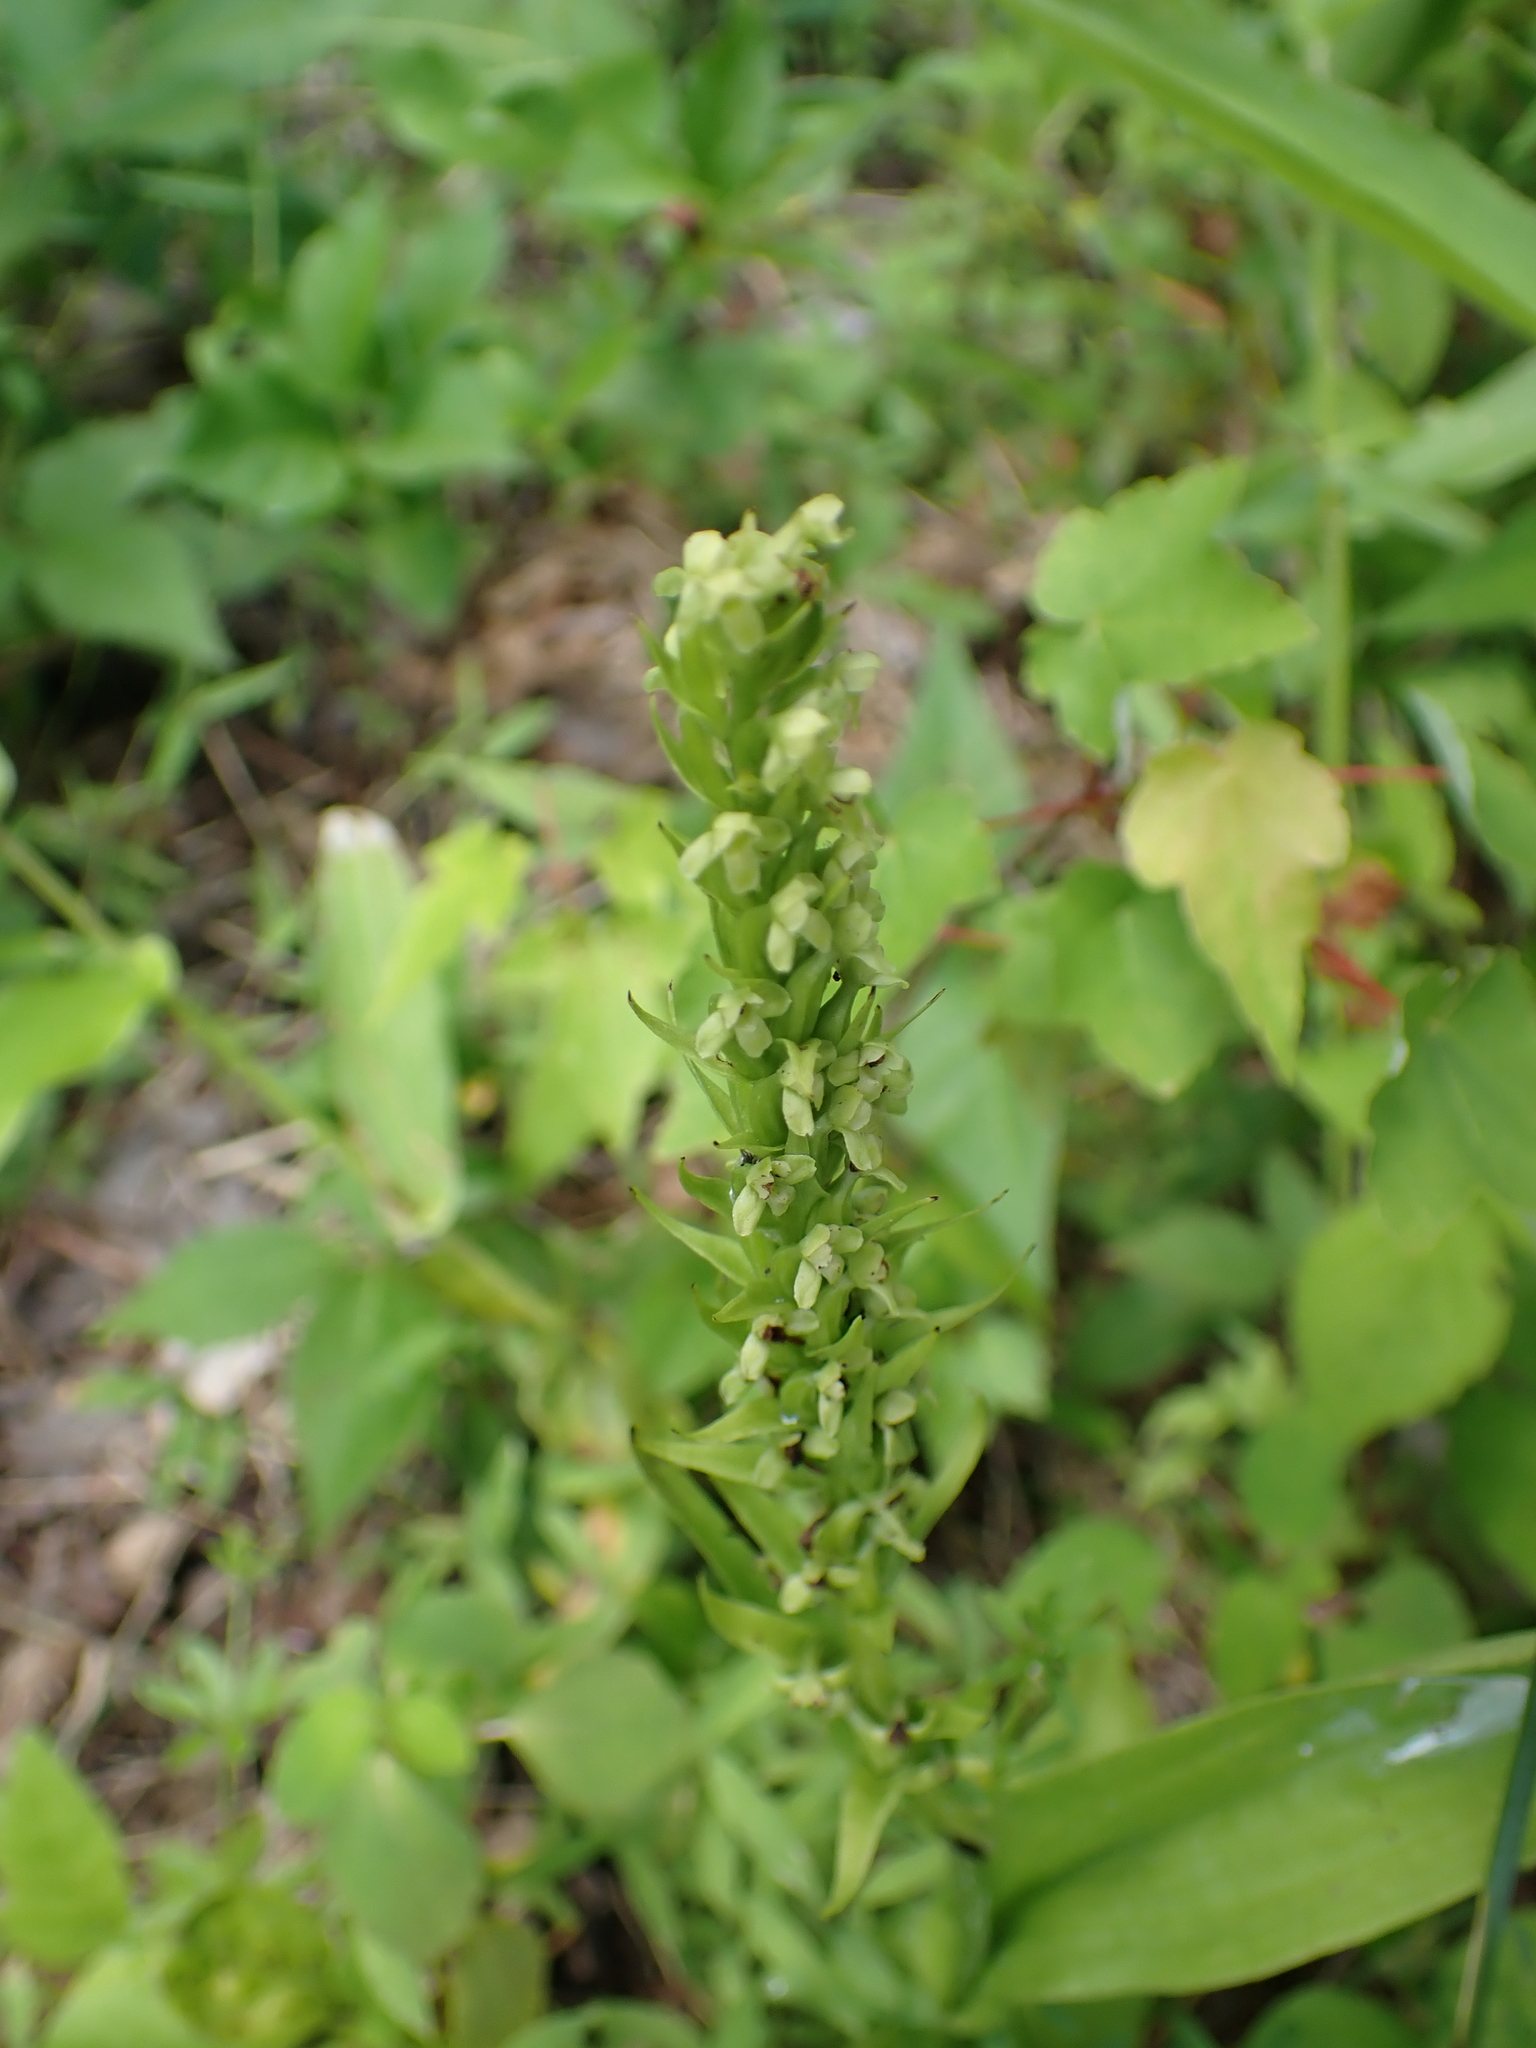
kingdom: Plantae
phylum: Tracheophyta
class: Liliopsida
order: Asparagales
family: Orchidaceae
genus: Platanthera
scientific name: Platanthera flava
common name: Gypsy-spikes
